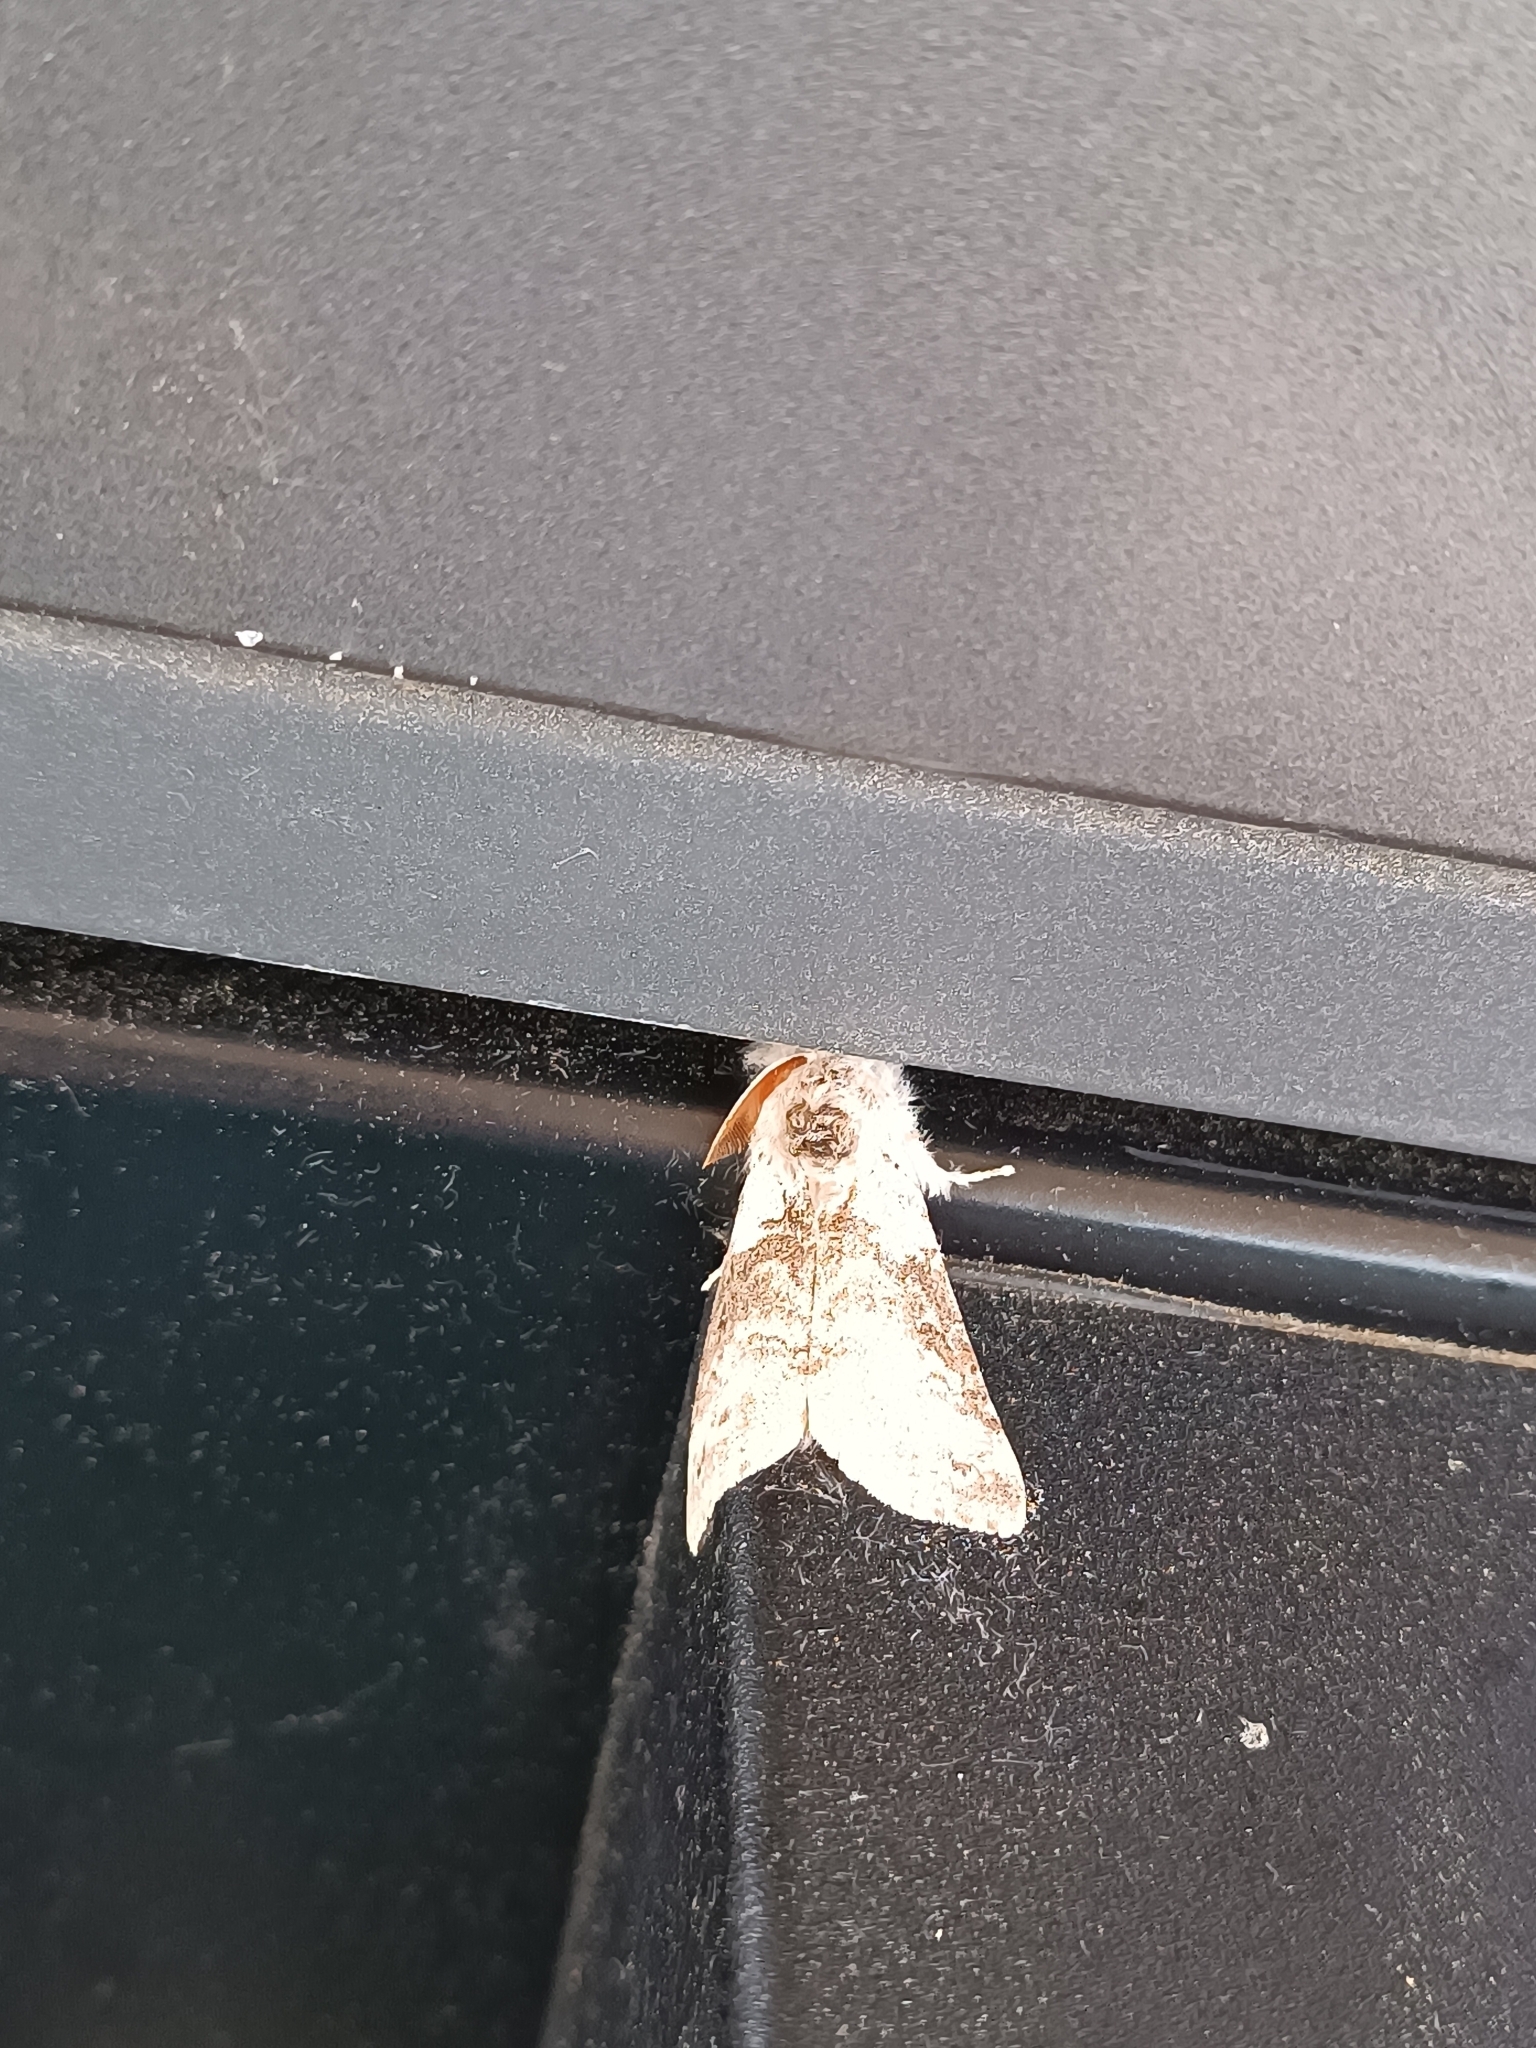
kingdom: Animalia
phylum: Arthropoda
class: Insecta
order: Lepidoptera
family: Erebidae
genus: Calliteara
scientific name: Calliteara pudibunda
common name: Pale tussock
